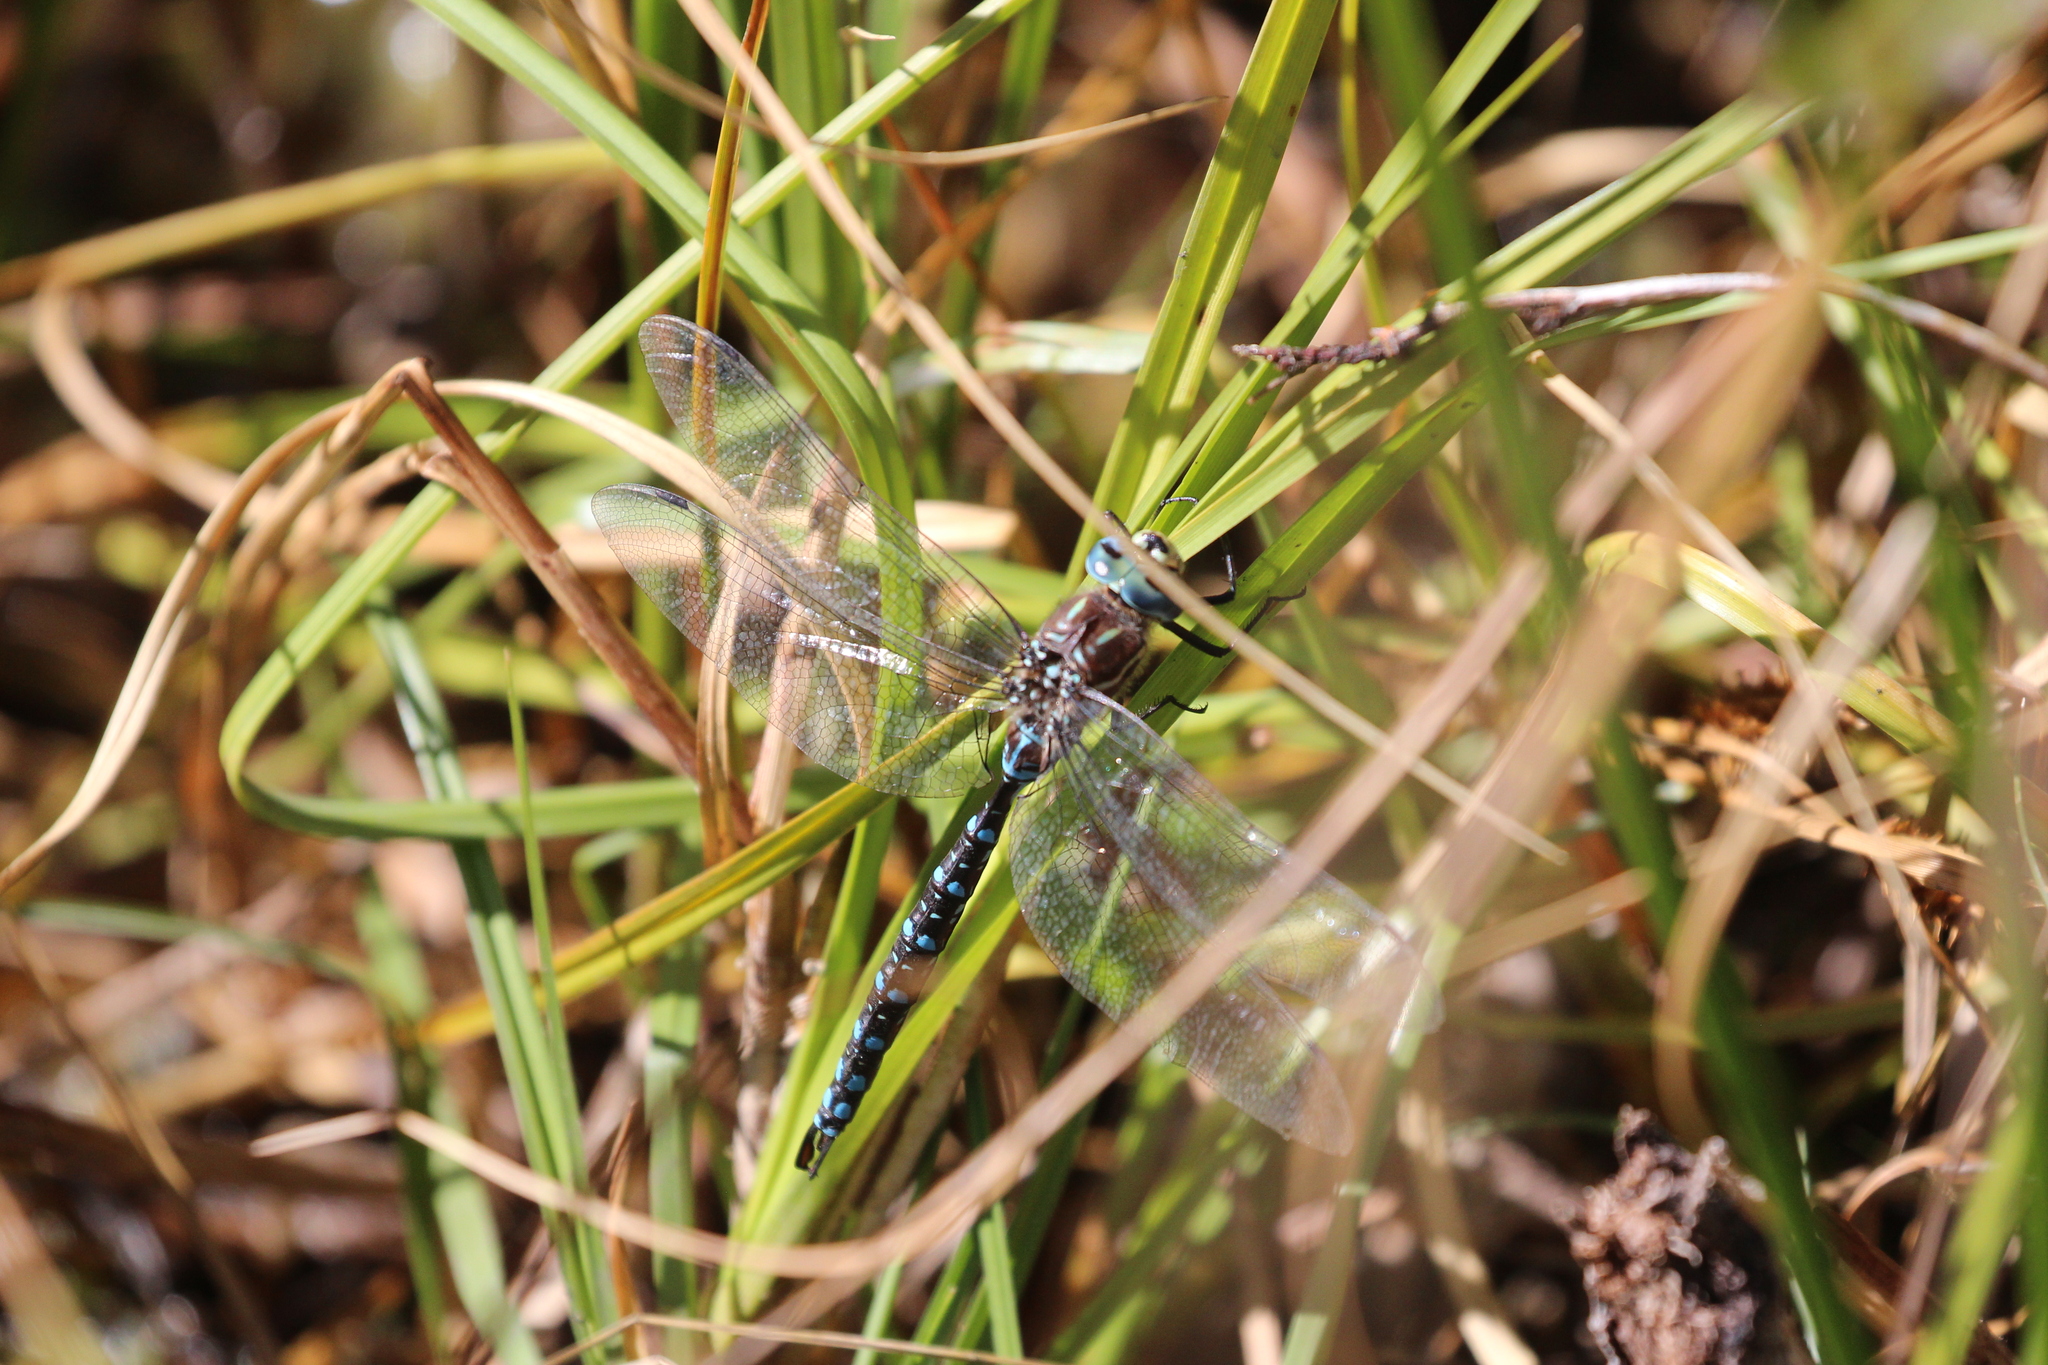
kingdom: Animalia
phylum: Arthropoda
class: Insecta
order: Odonata
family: Aeshnidae
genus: Aeshna
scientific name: Aeshna palmata
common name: Paddle-tailed darner
